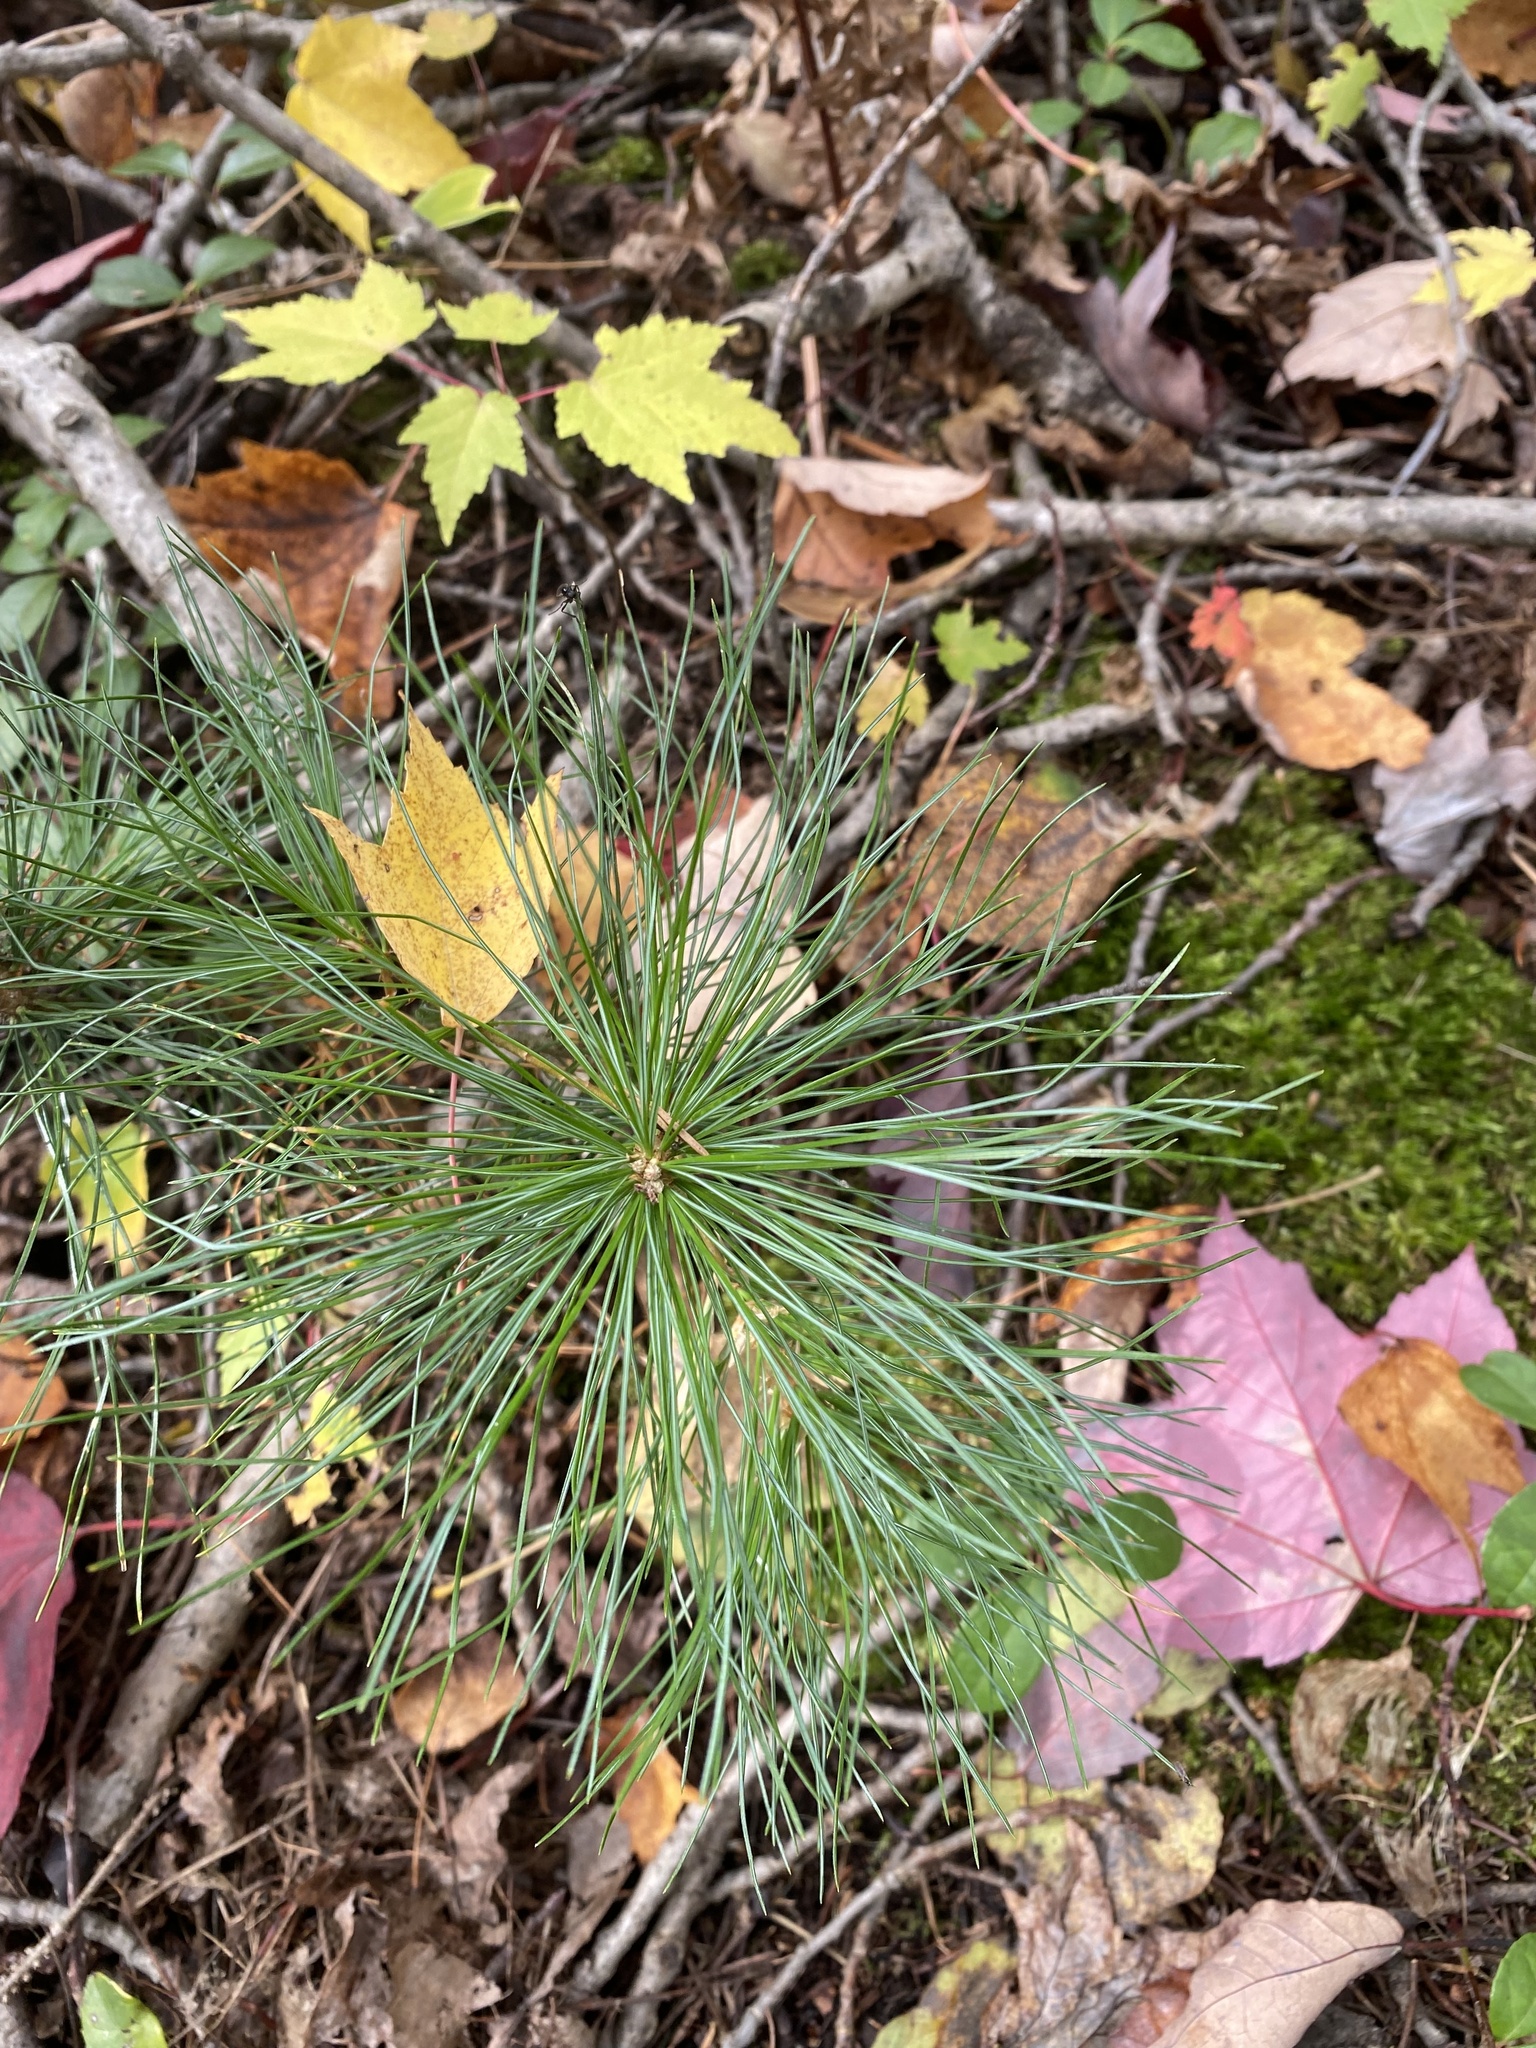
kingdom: Plantae
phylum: Tracheophyta
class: Pinopsida
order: Pinales
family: Pinaceae
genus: Pinus
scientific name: Pinus strobus
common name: Weymouth pine
